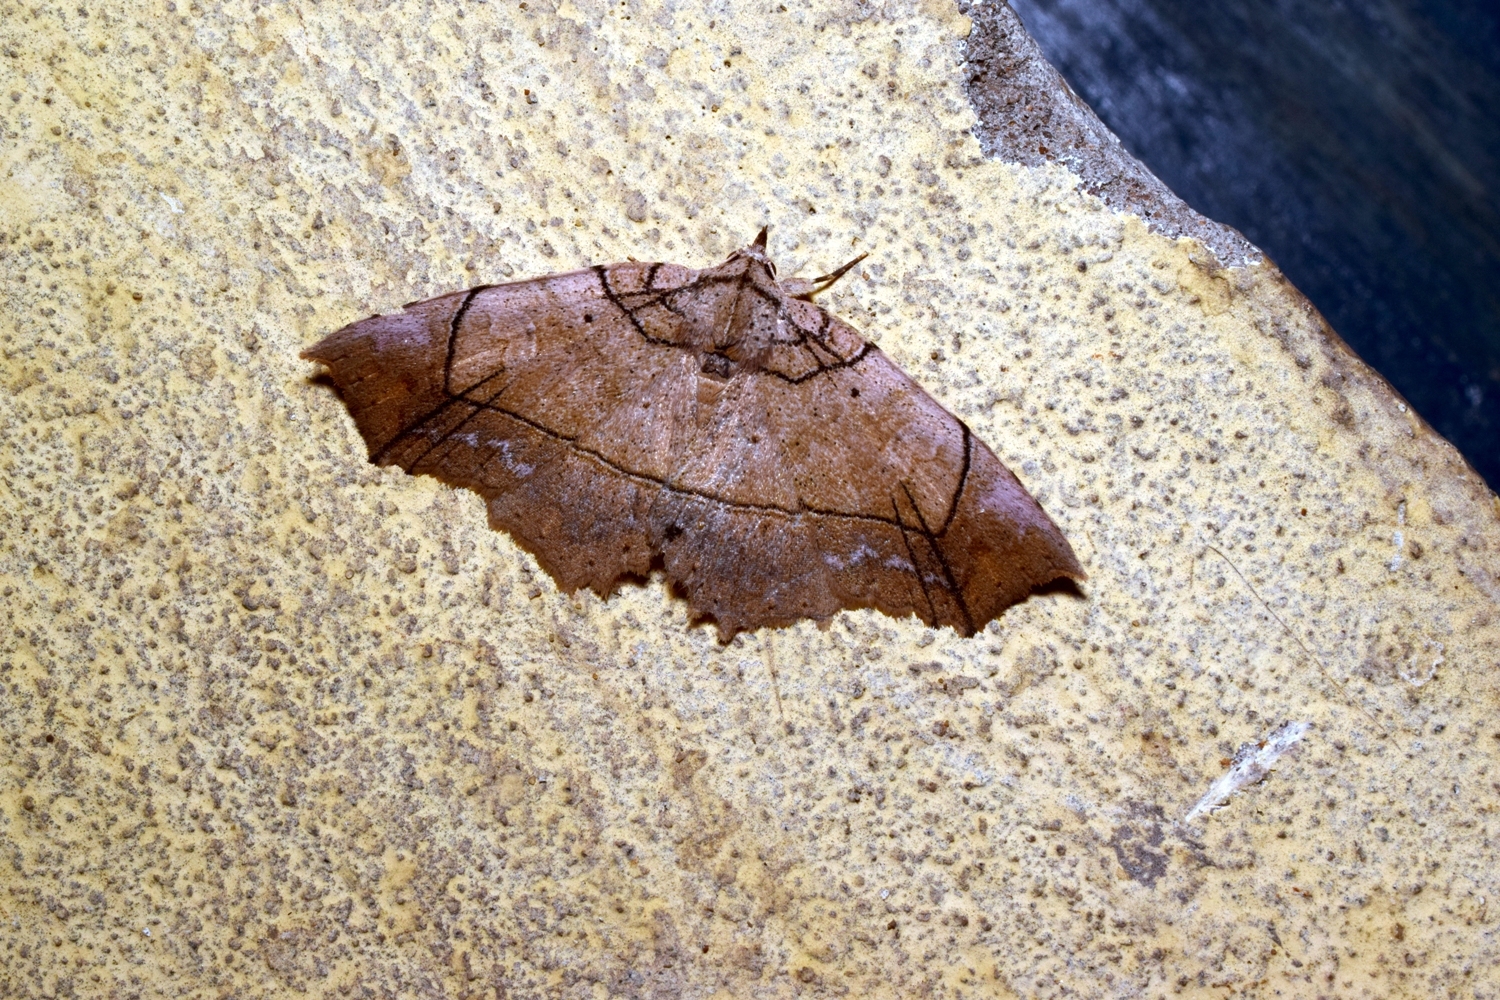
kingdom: Animalia
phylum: Arthropoda
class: Insecta
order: Lepidoptera
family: Erebidae
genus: Tamba
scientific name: Tamba nigrilinea
